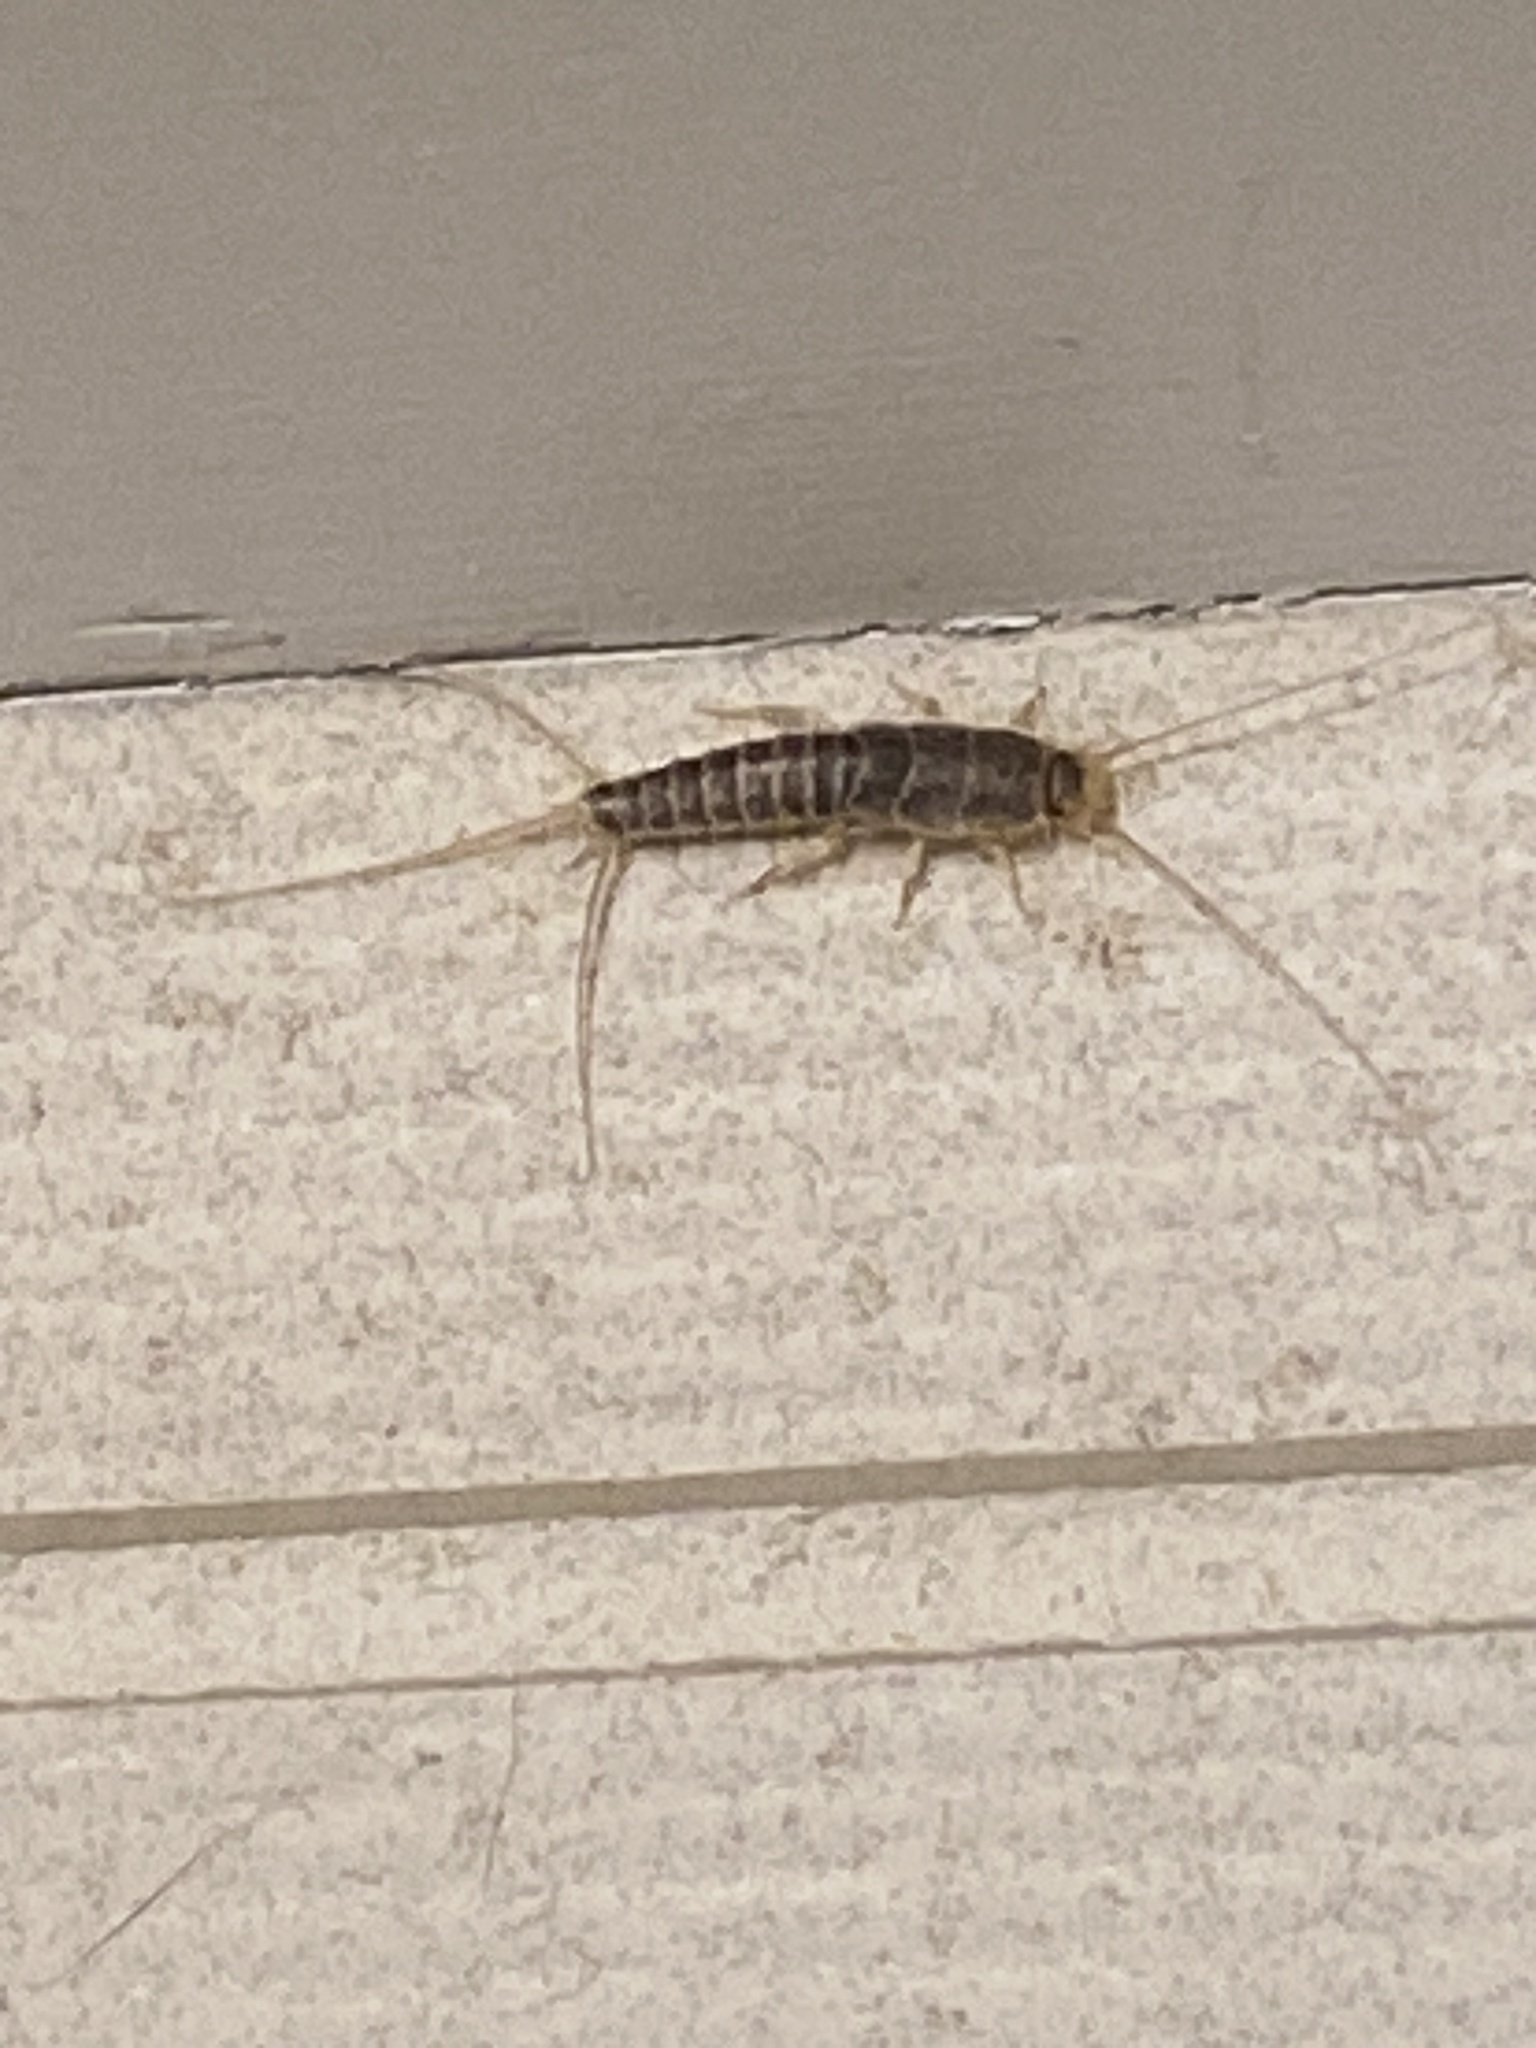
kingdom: Animalia
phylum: Arthropoda
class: Insecta
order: Zygentoma
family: Lepismatidae
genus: Ctenolepisma
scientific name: Ctenolepisma longicaudatum
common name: Silverfish
